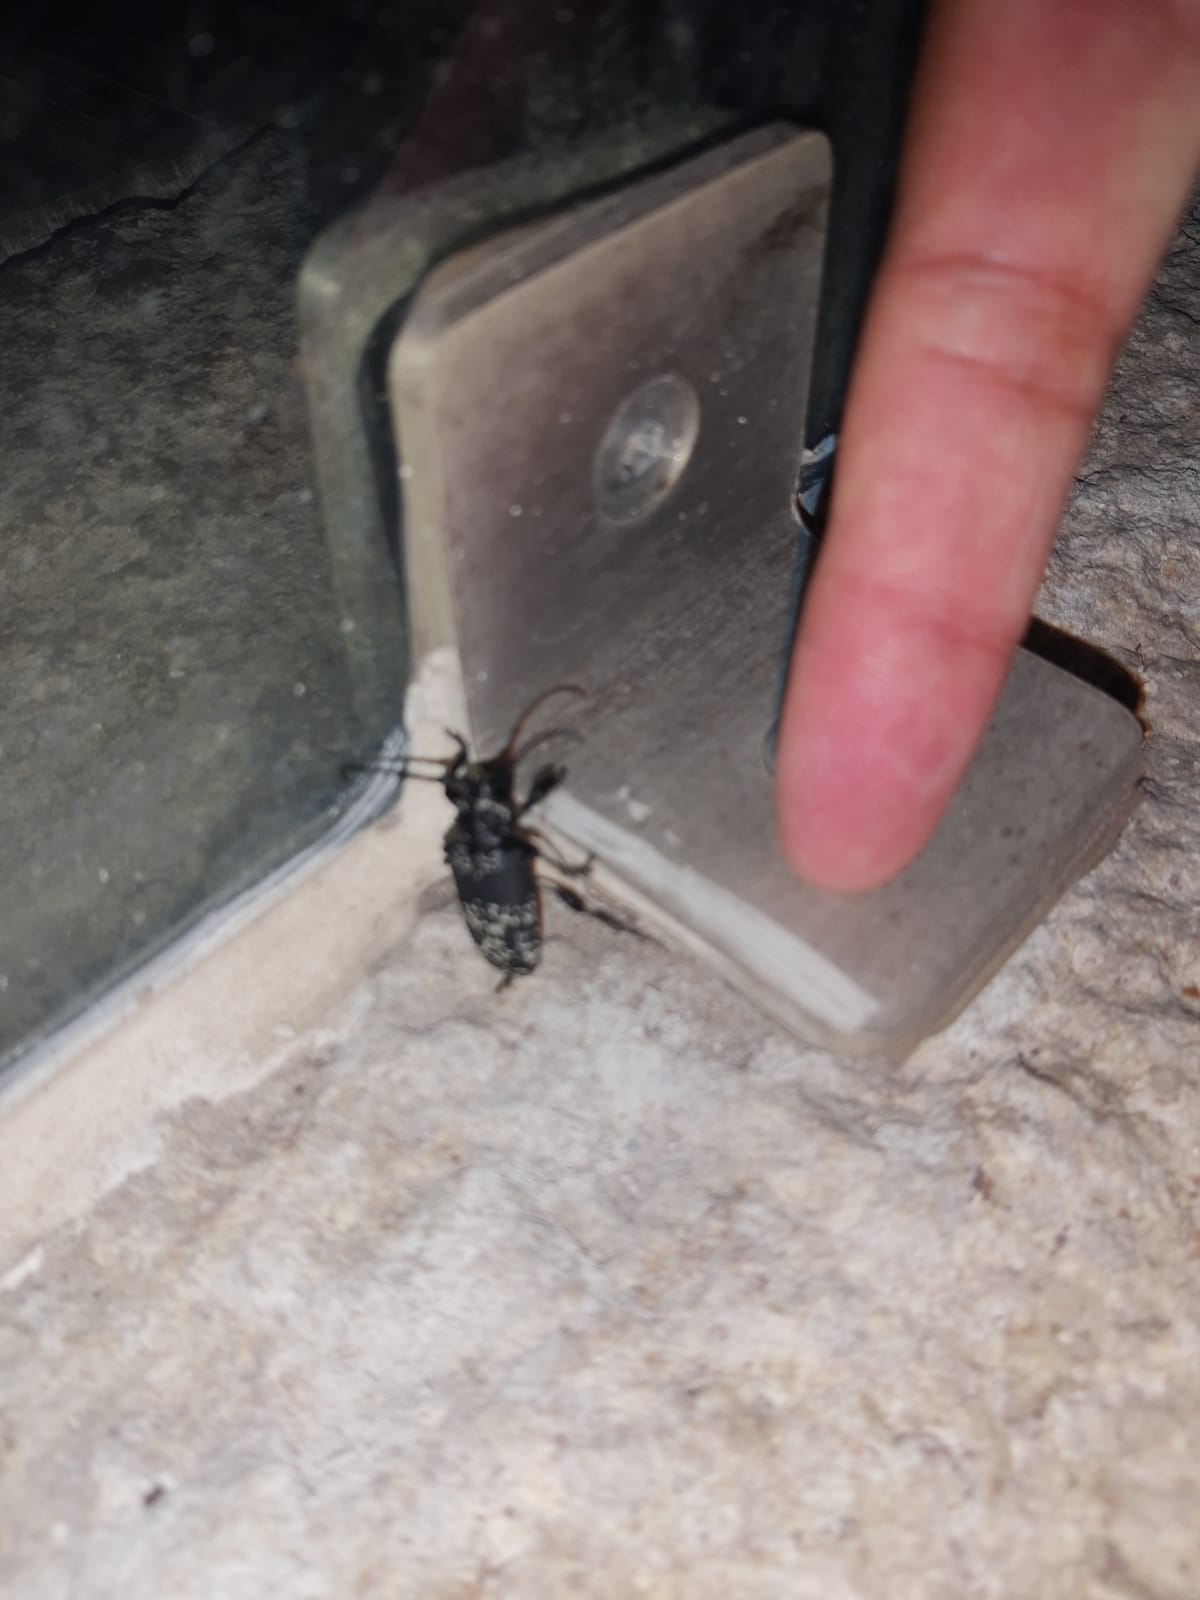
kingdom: Animalia
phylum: Arthropoda
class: Insecta
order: Coleoptera
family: Cerambycidae
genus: Acanthoderes
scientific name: Acanthoderes funeraria
